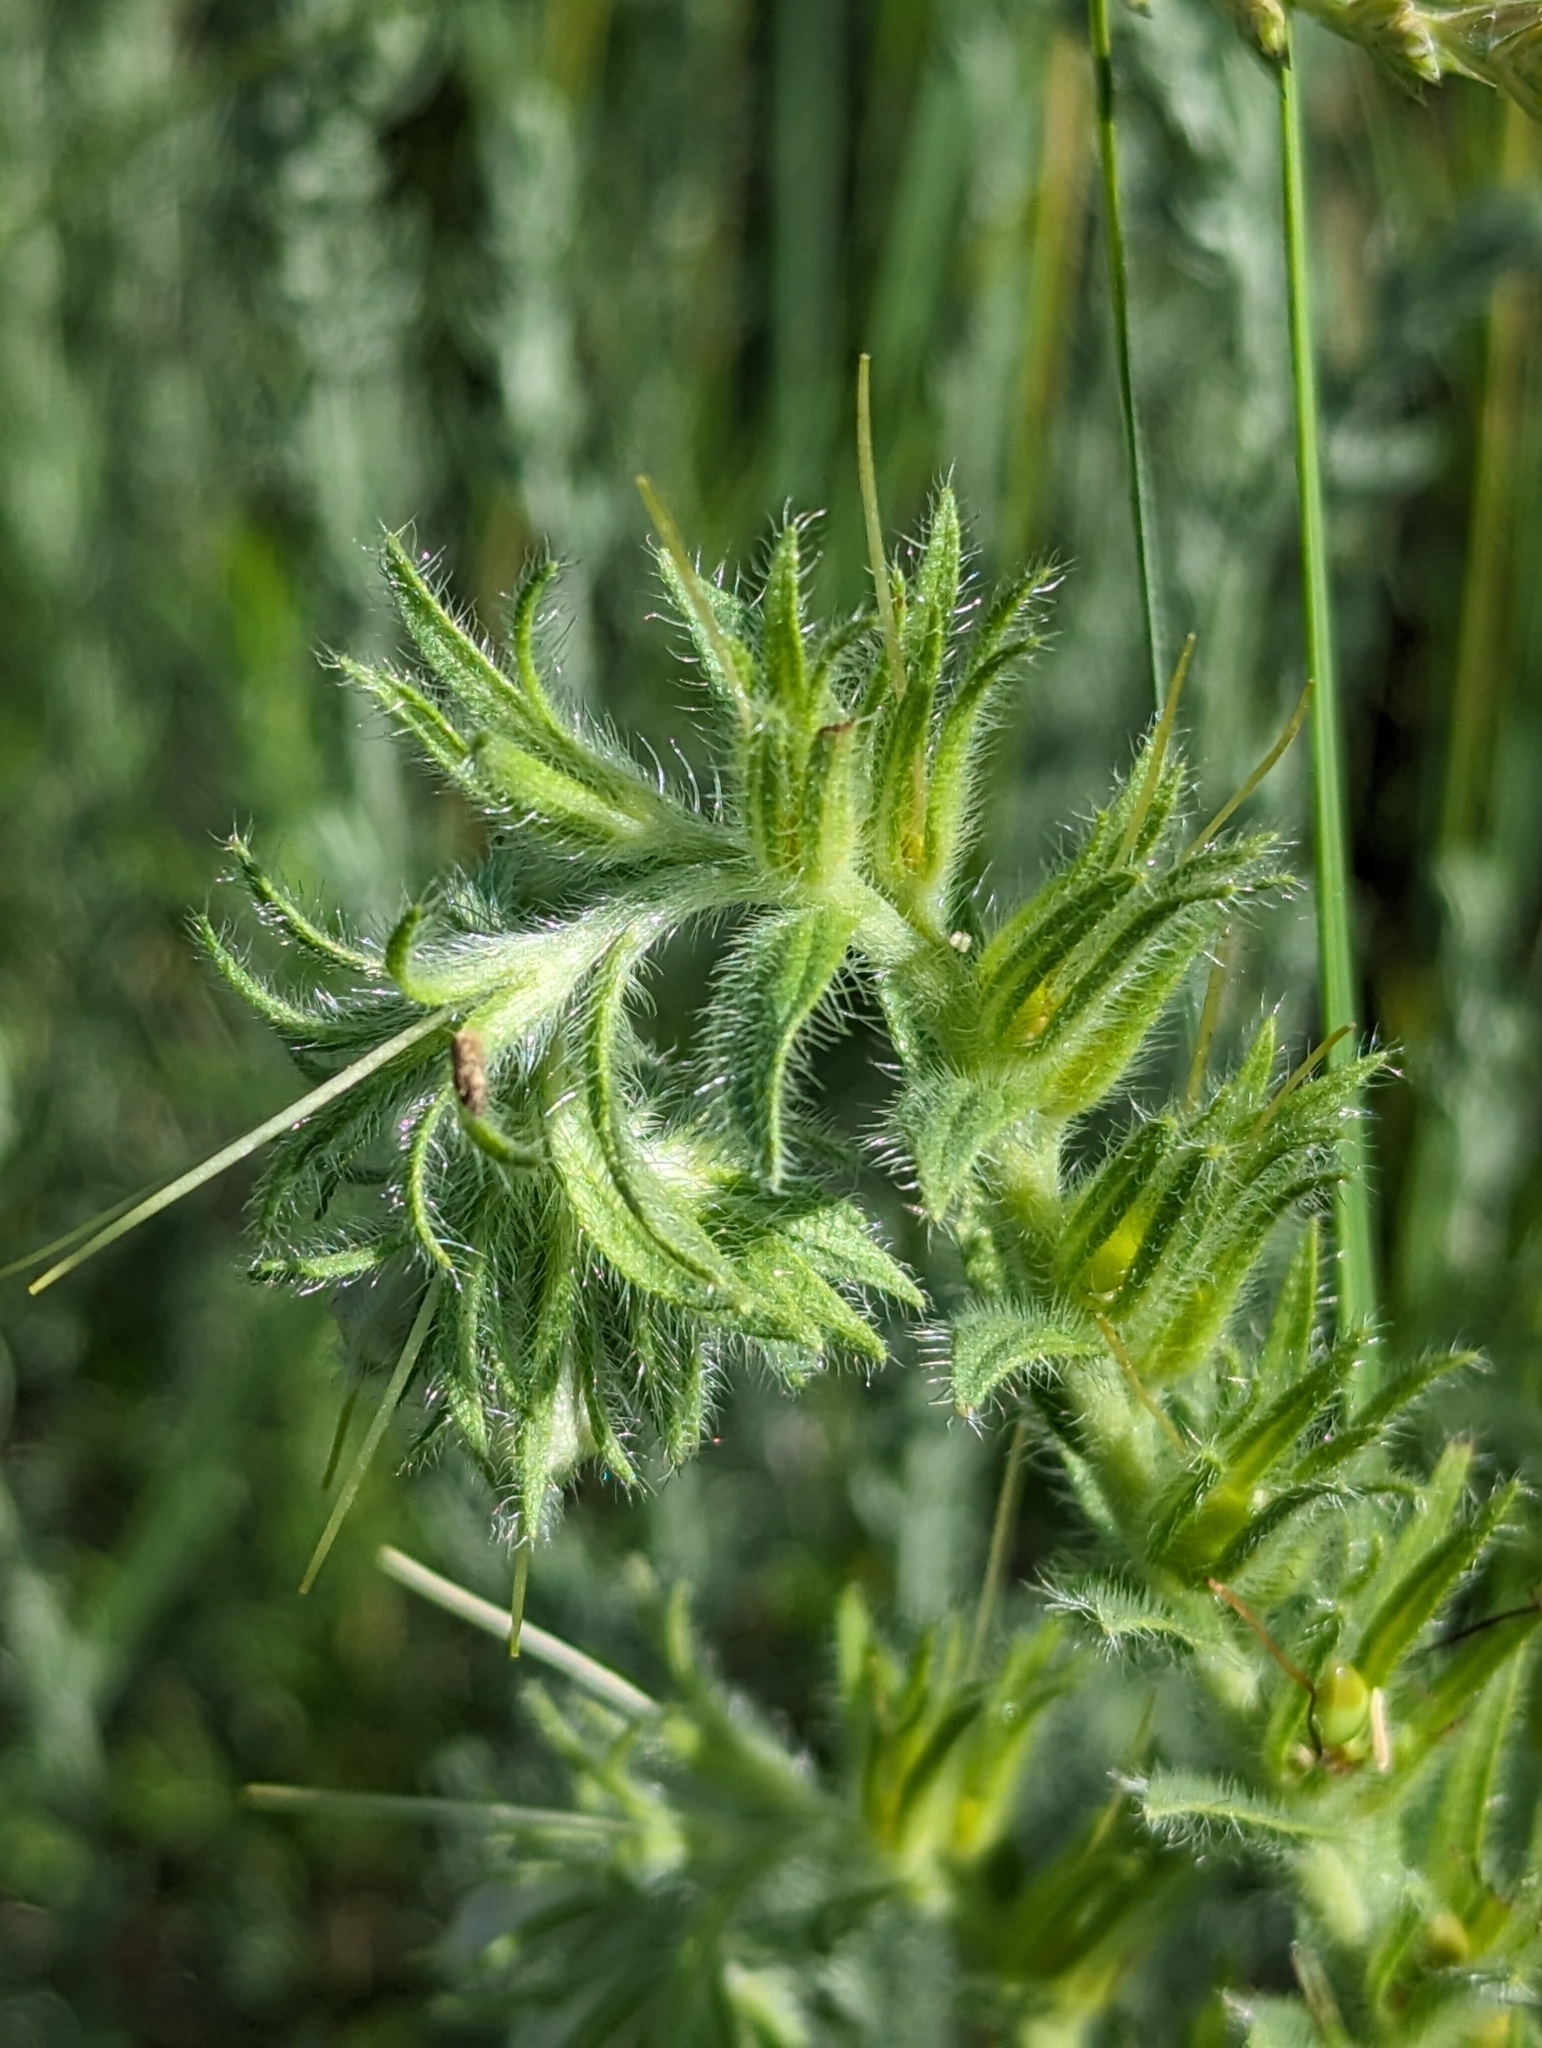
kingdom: Plantae
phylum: Tracheophyta
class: Magnoliopsida
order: Boraginales
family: Boraginaceae
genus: Lithospermum
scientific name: Lithospermum occidentale
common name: Western false gromwell
